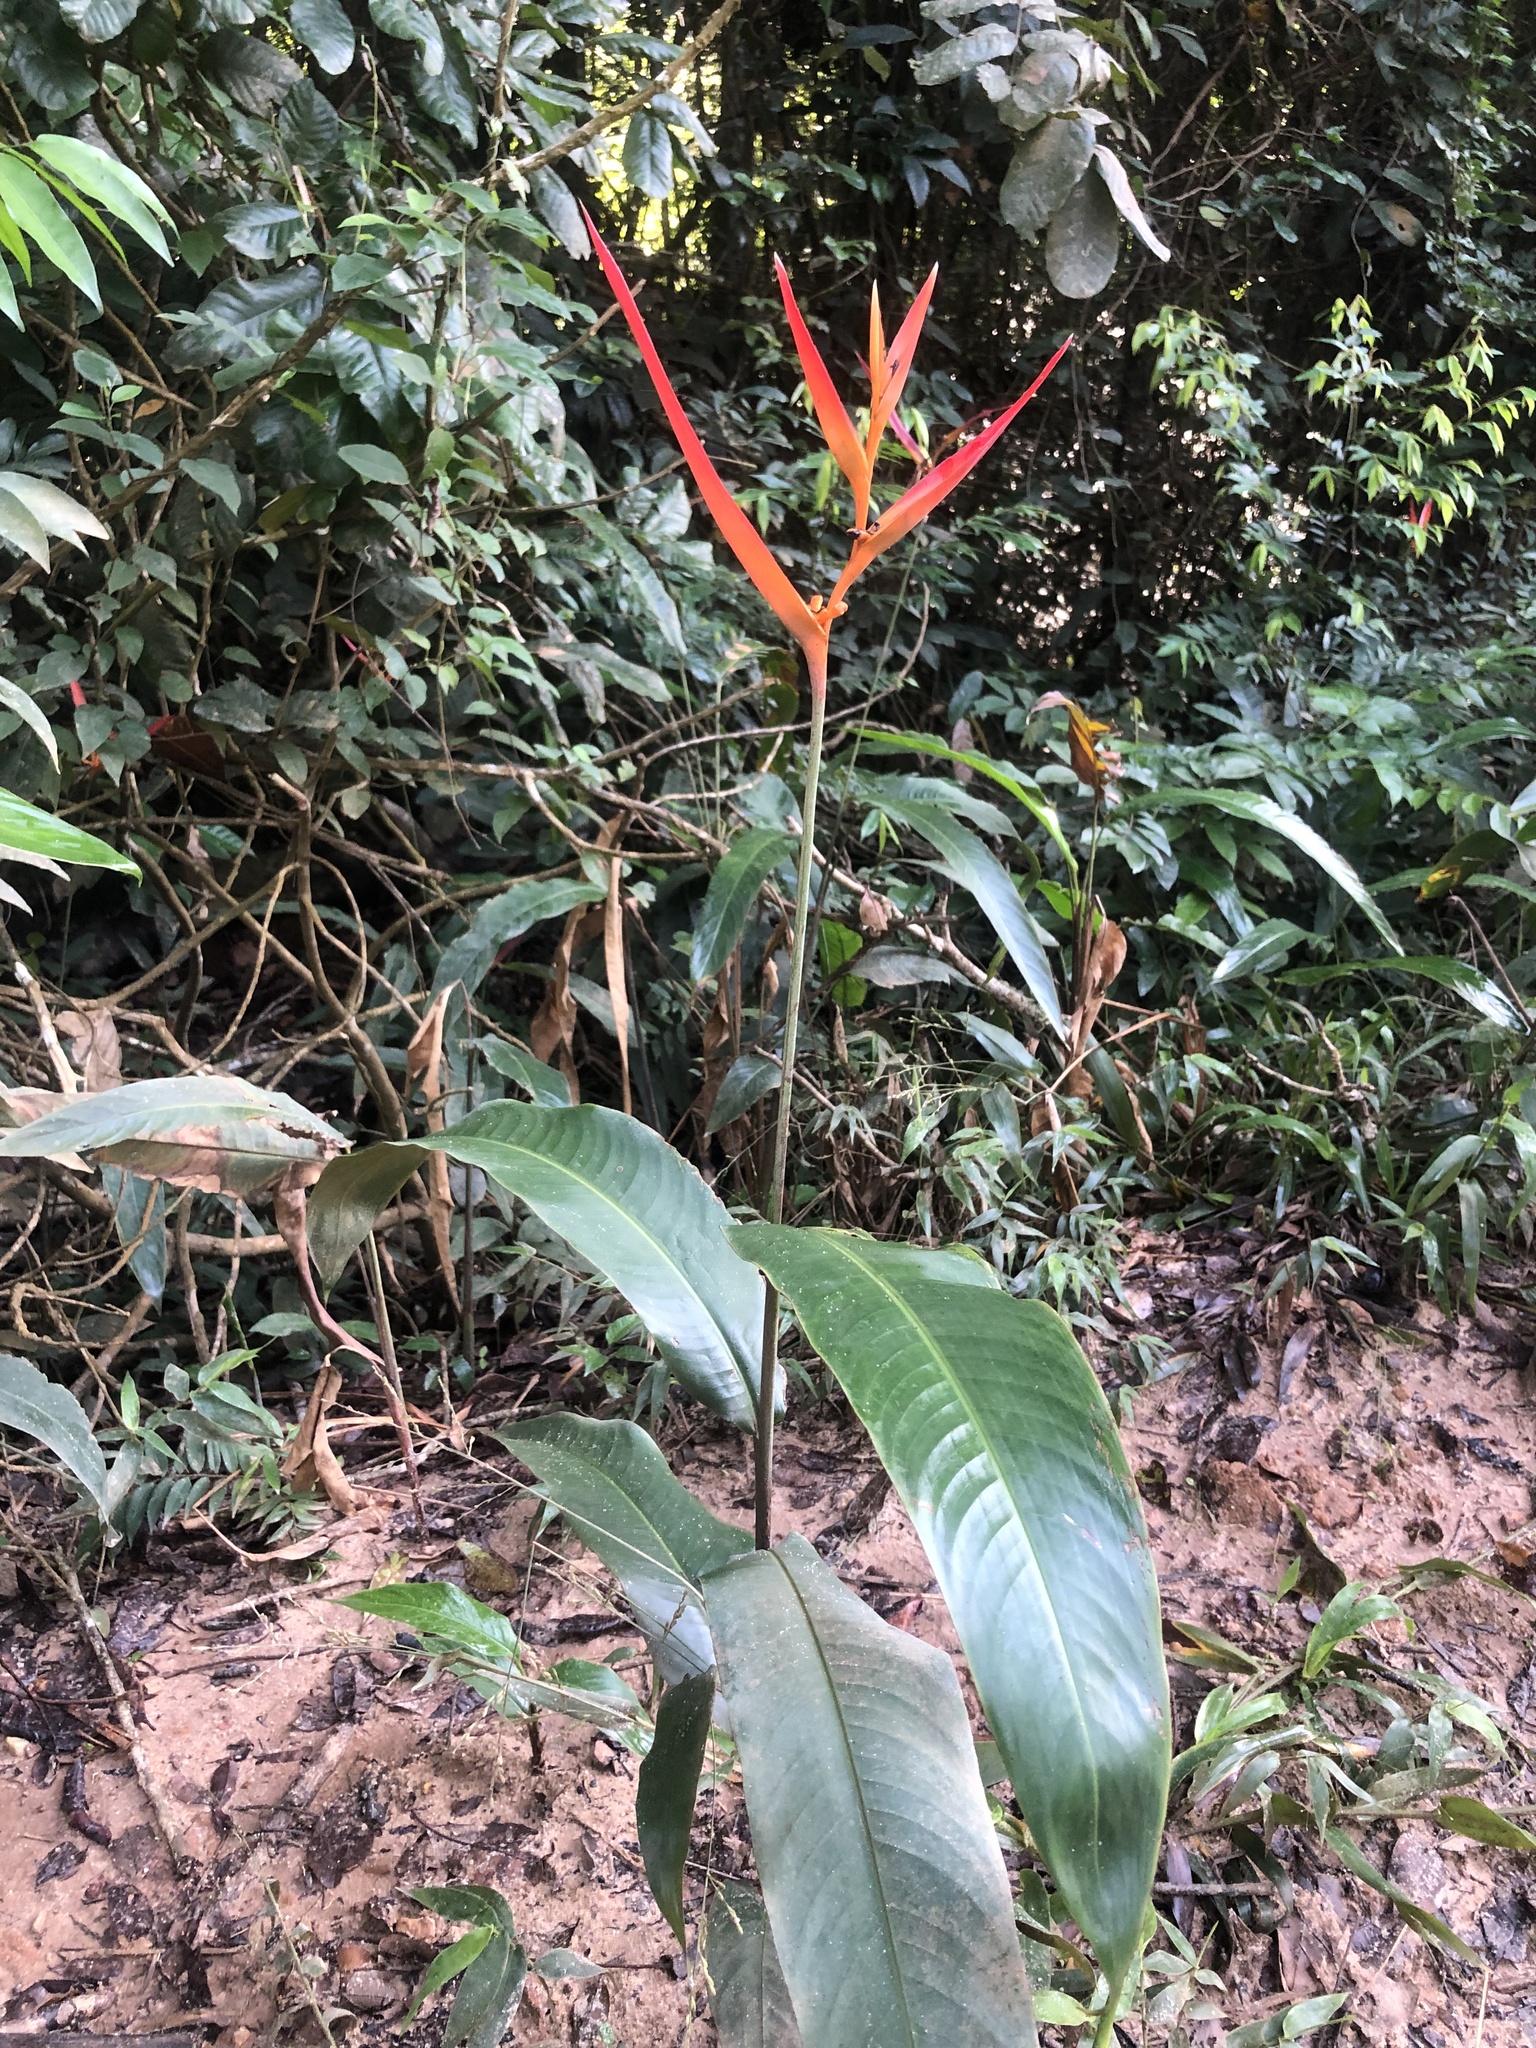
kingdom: Plantae
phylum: Tracheophyta
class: Liliopsida
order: Zingiberales
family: Heliconiaceae
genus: Heliconia
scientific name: Heliconia psittacorum
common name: Parrot's-flower
